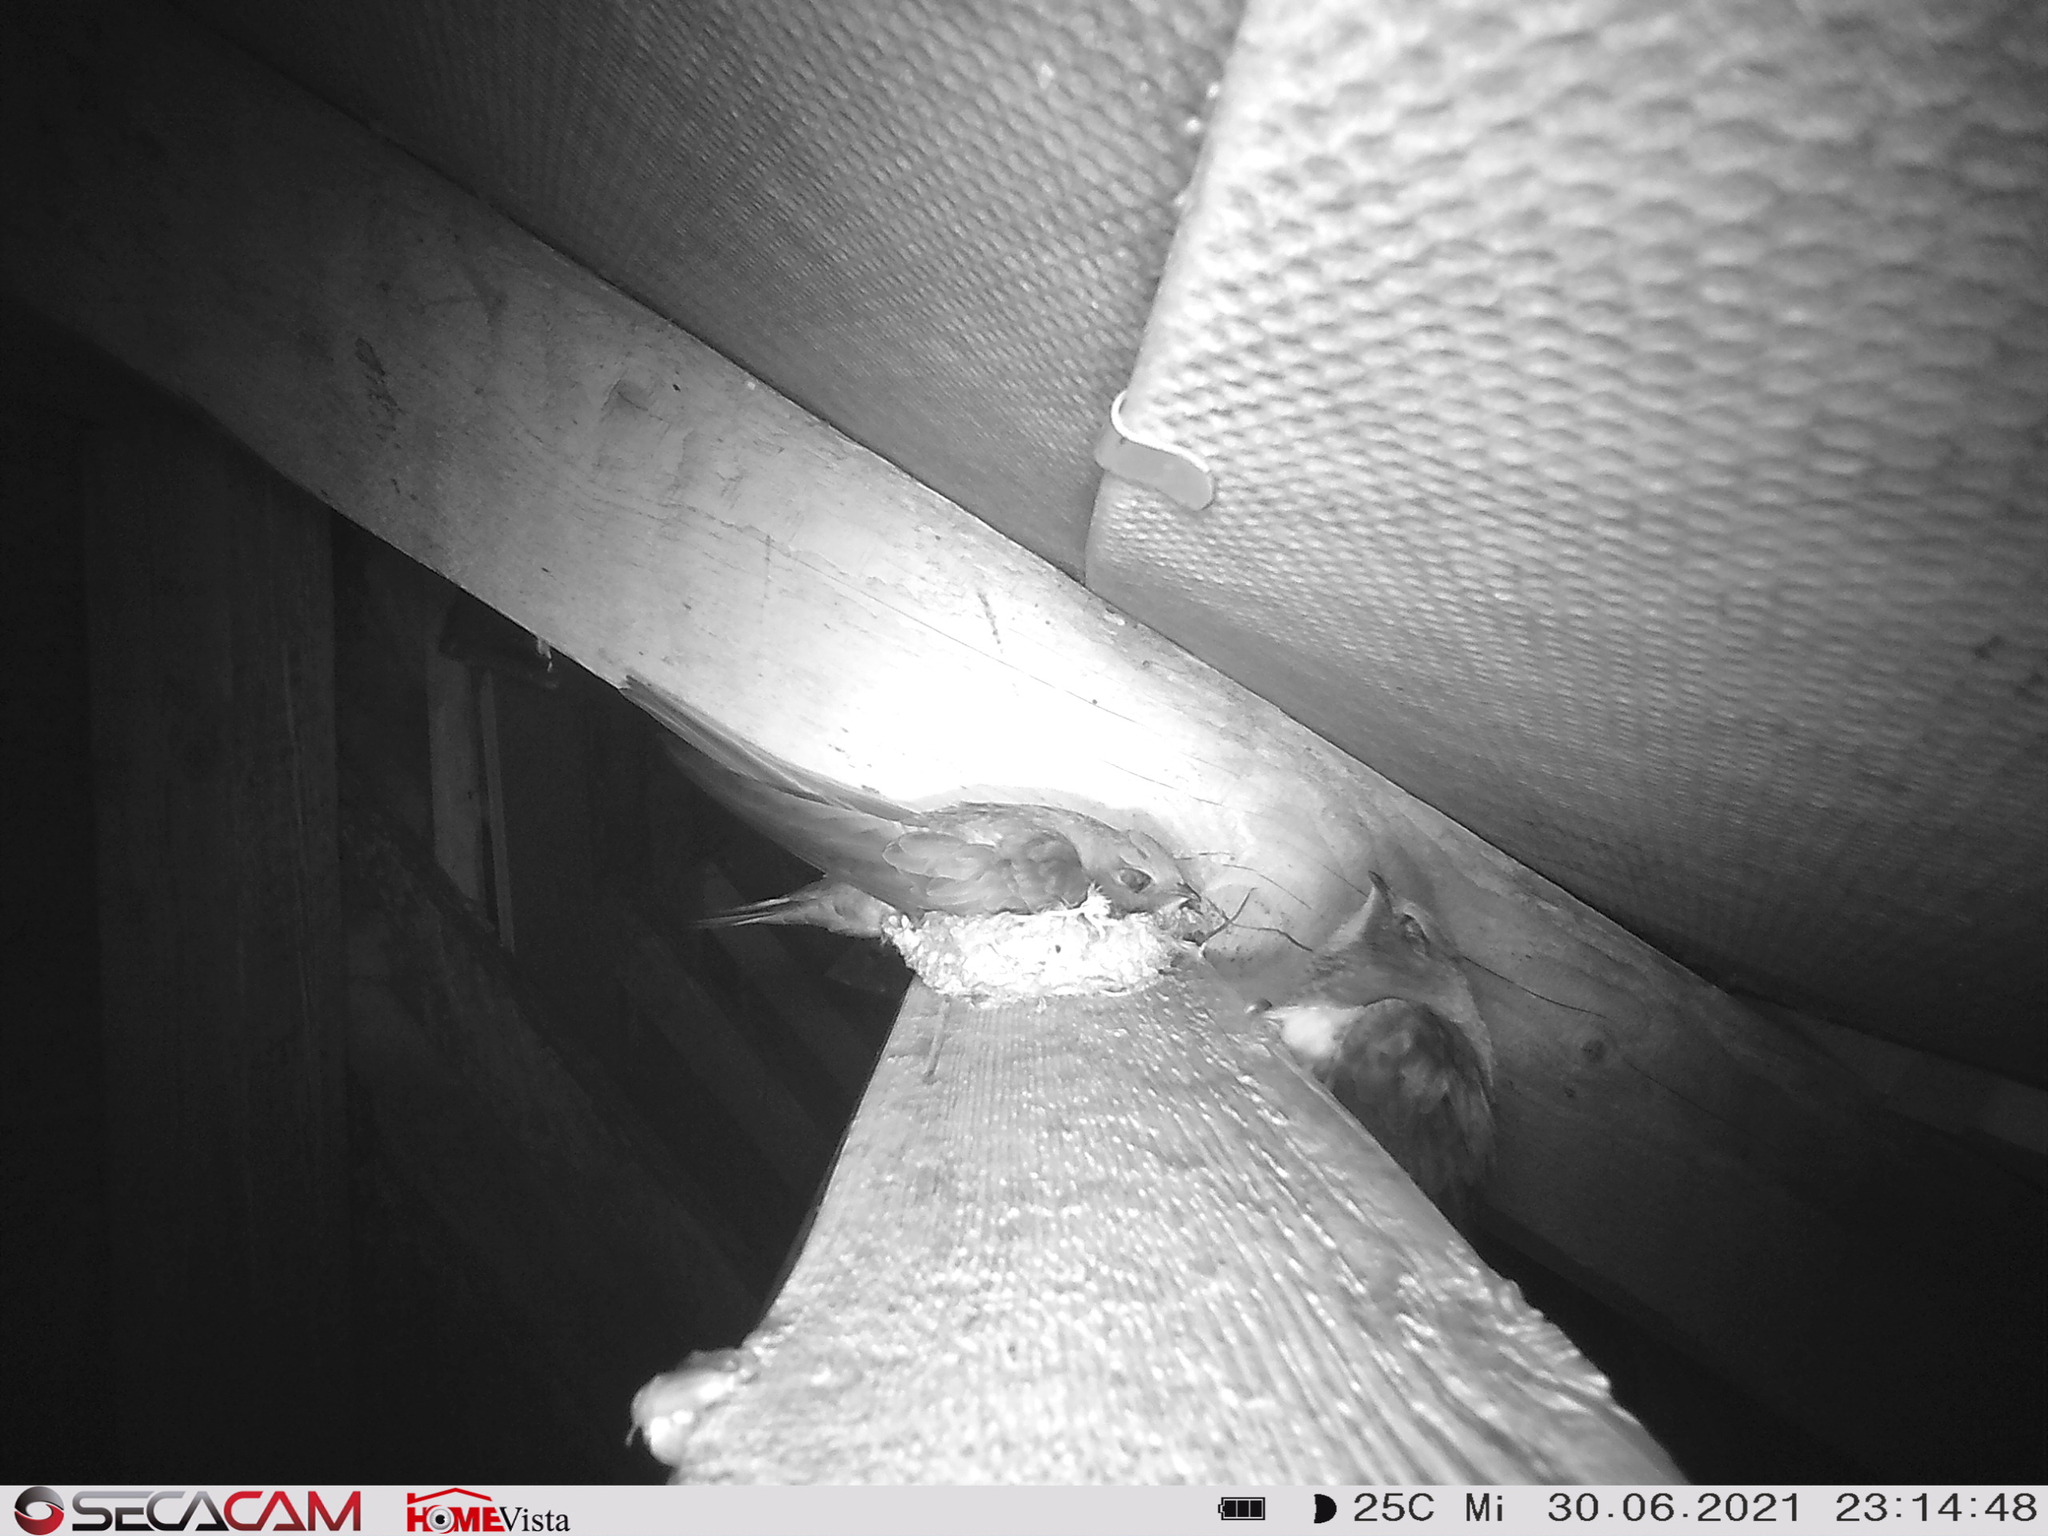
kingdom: Animalia
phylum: Chordata
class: Aves
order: Apodiformes
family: Apodidae
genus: Tachymarptis
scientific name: Tachymarptis melba
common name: Alpine swift
